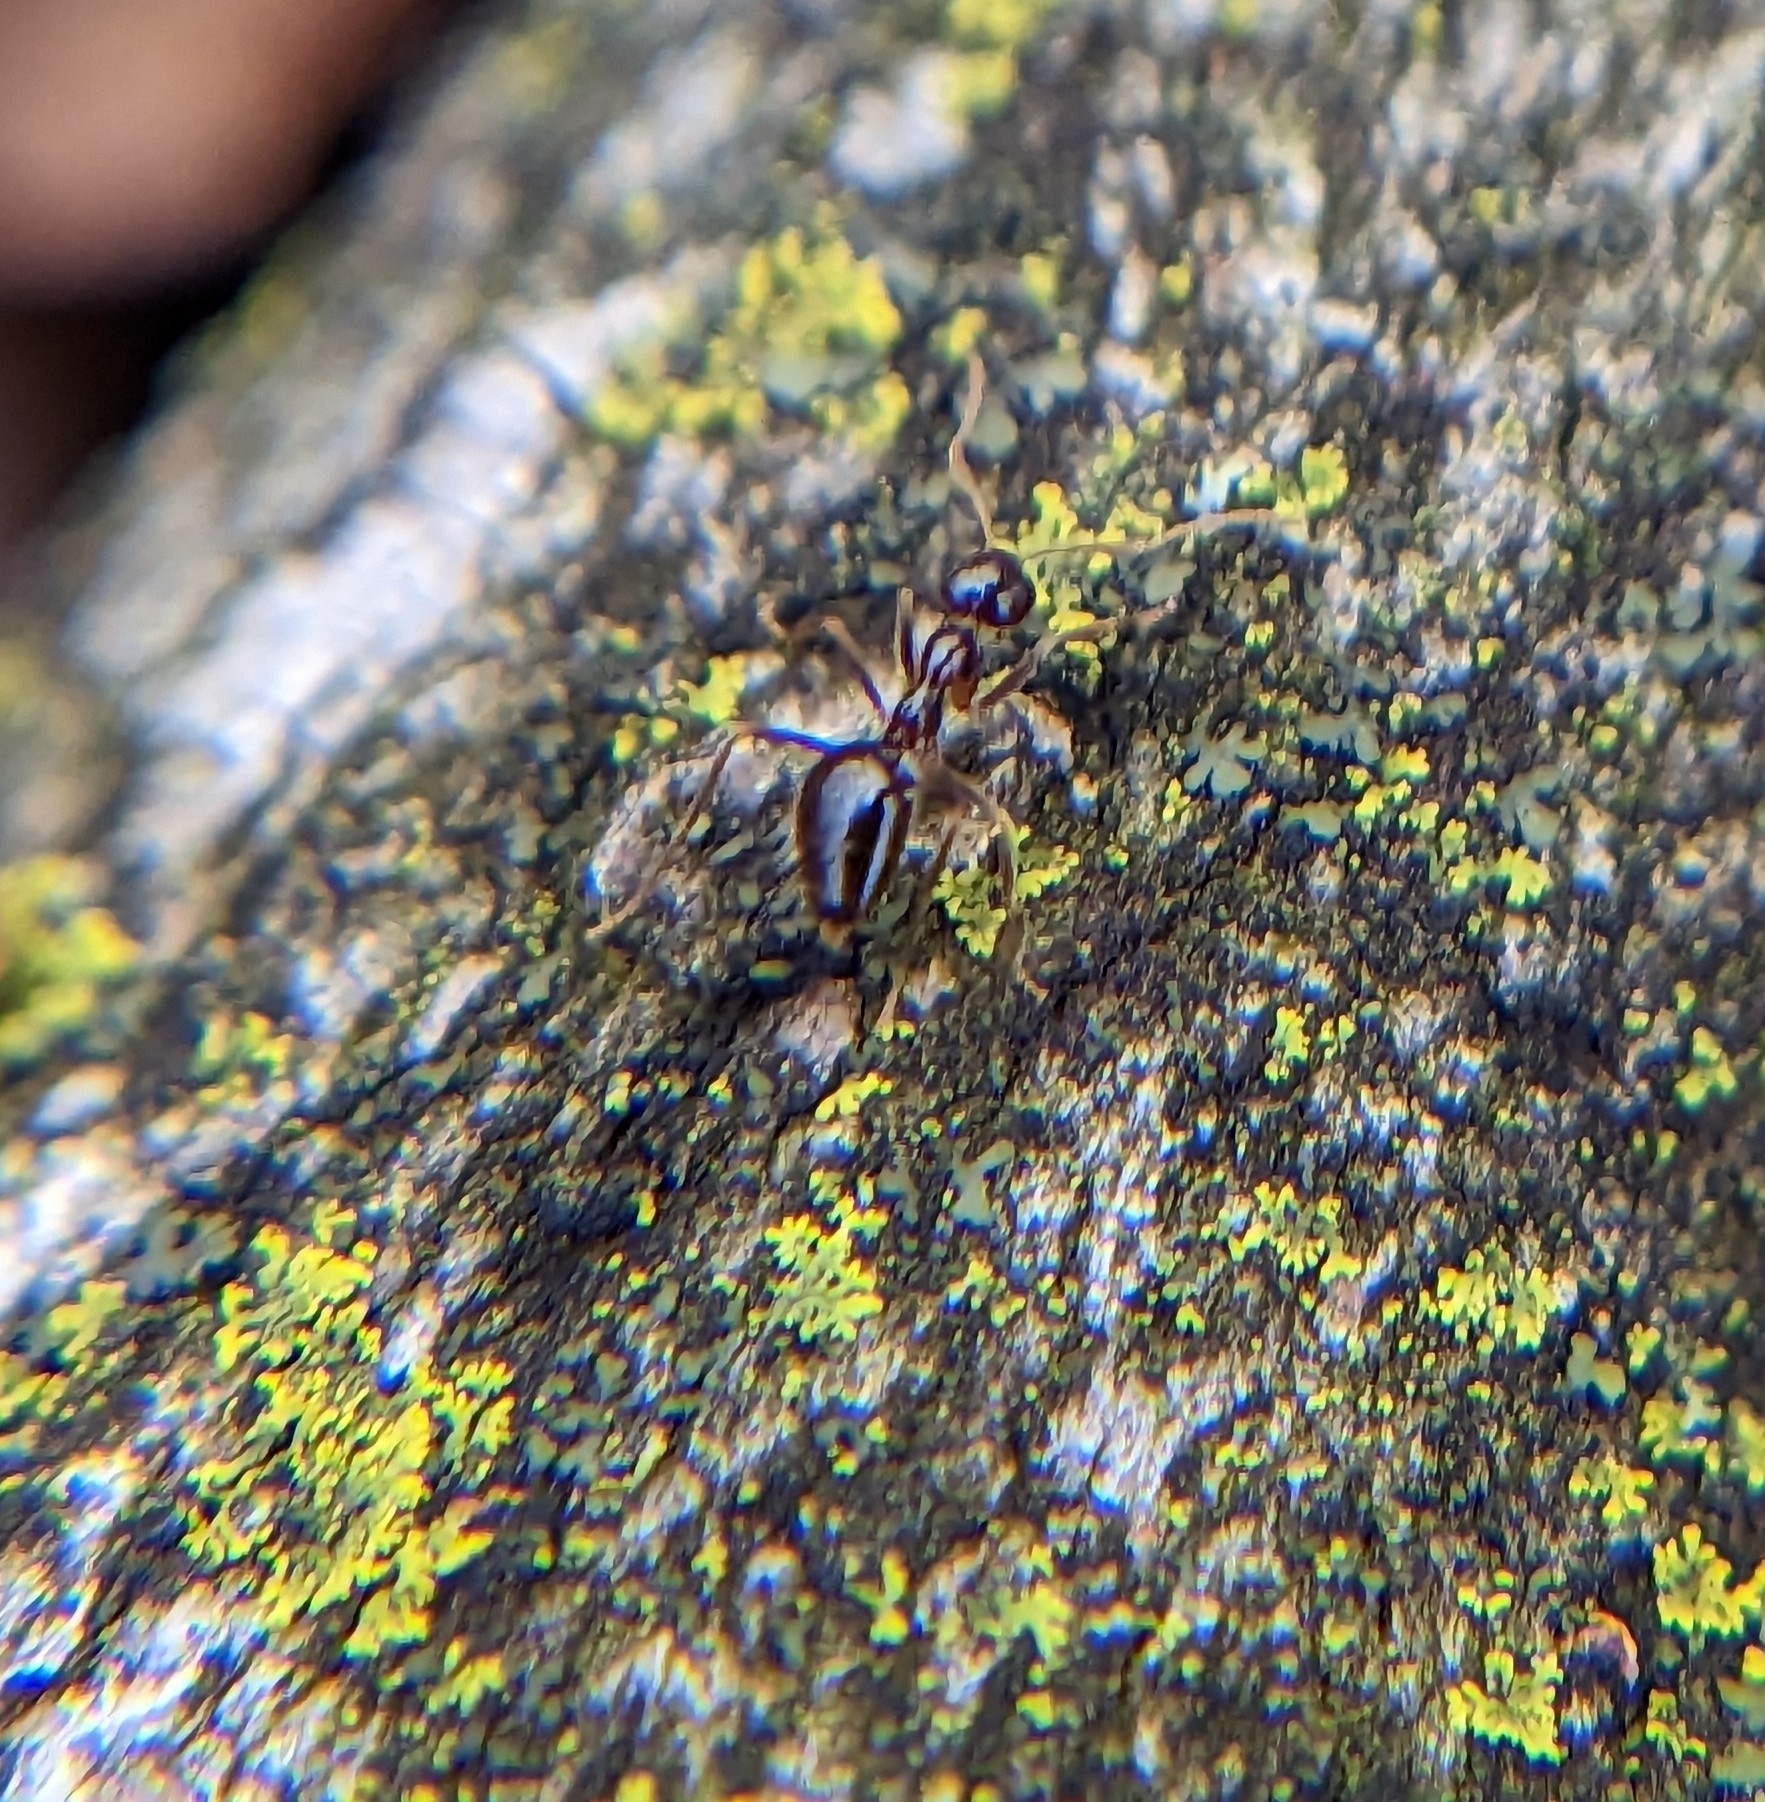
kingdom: Animalia
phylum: Arthropoda
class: Insecta
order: Hymenoptera
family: Formicidae
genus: Prenolepis
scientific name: Prenolepis imparis
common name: Small honey ant
